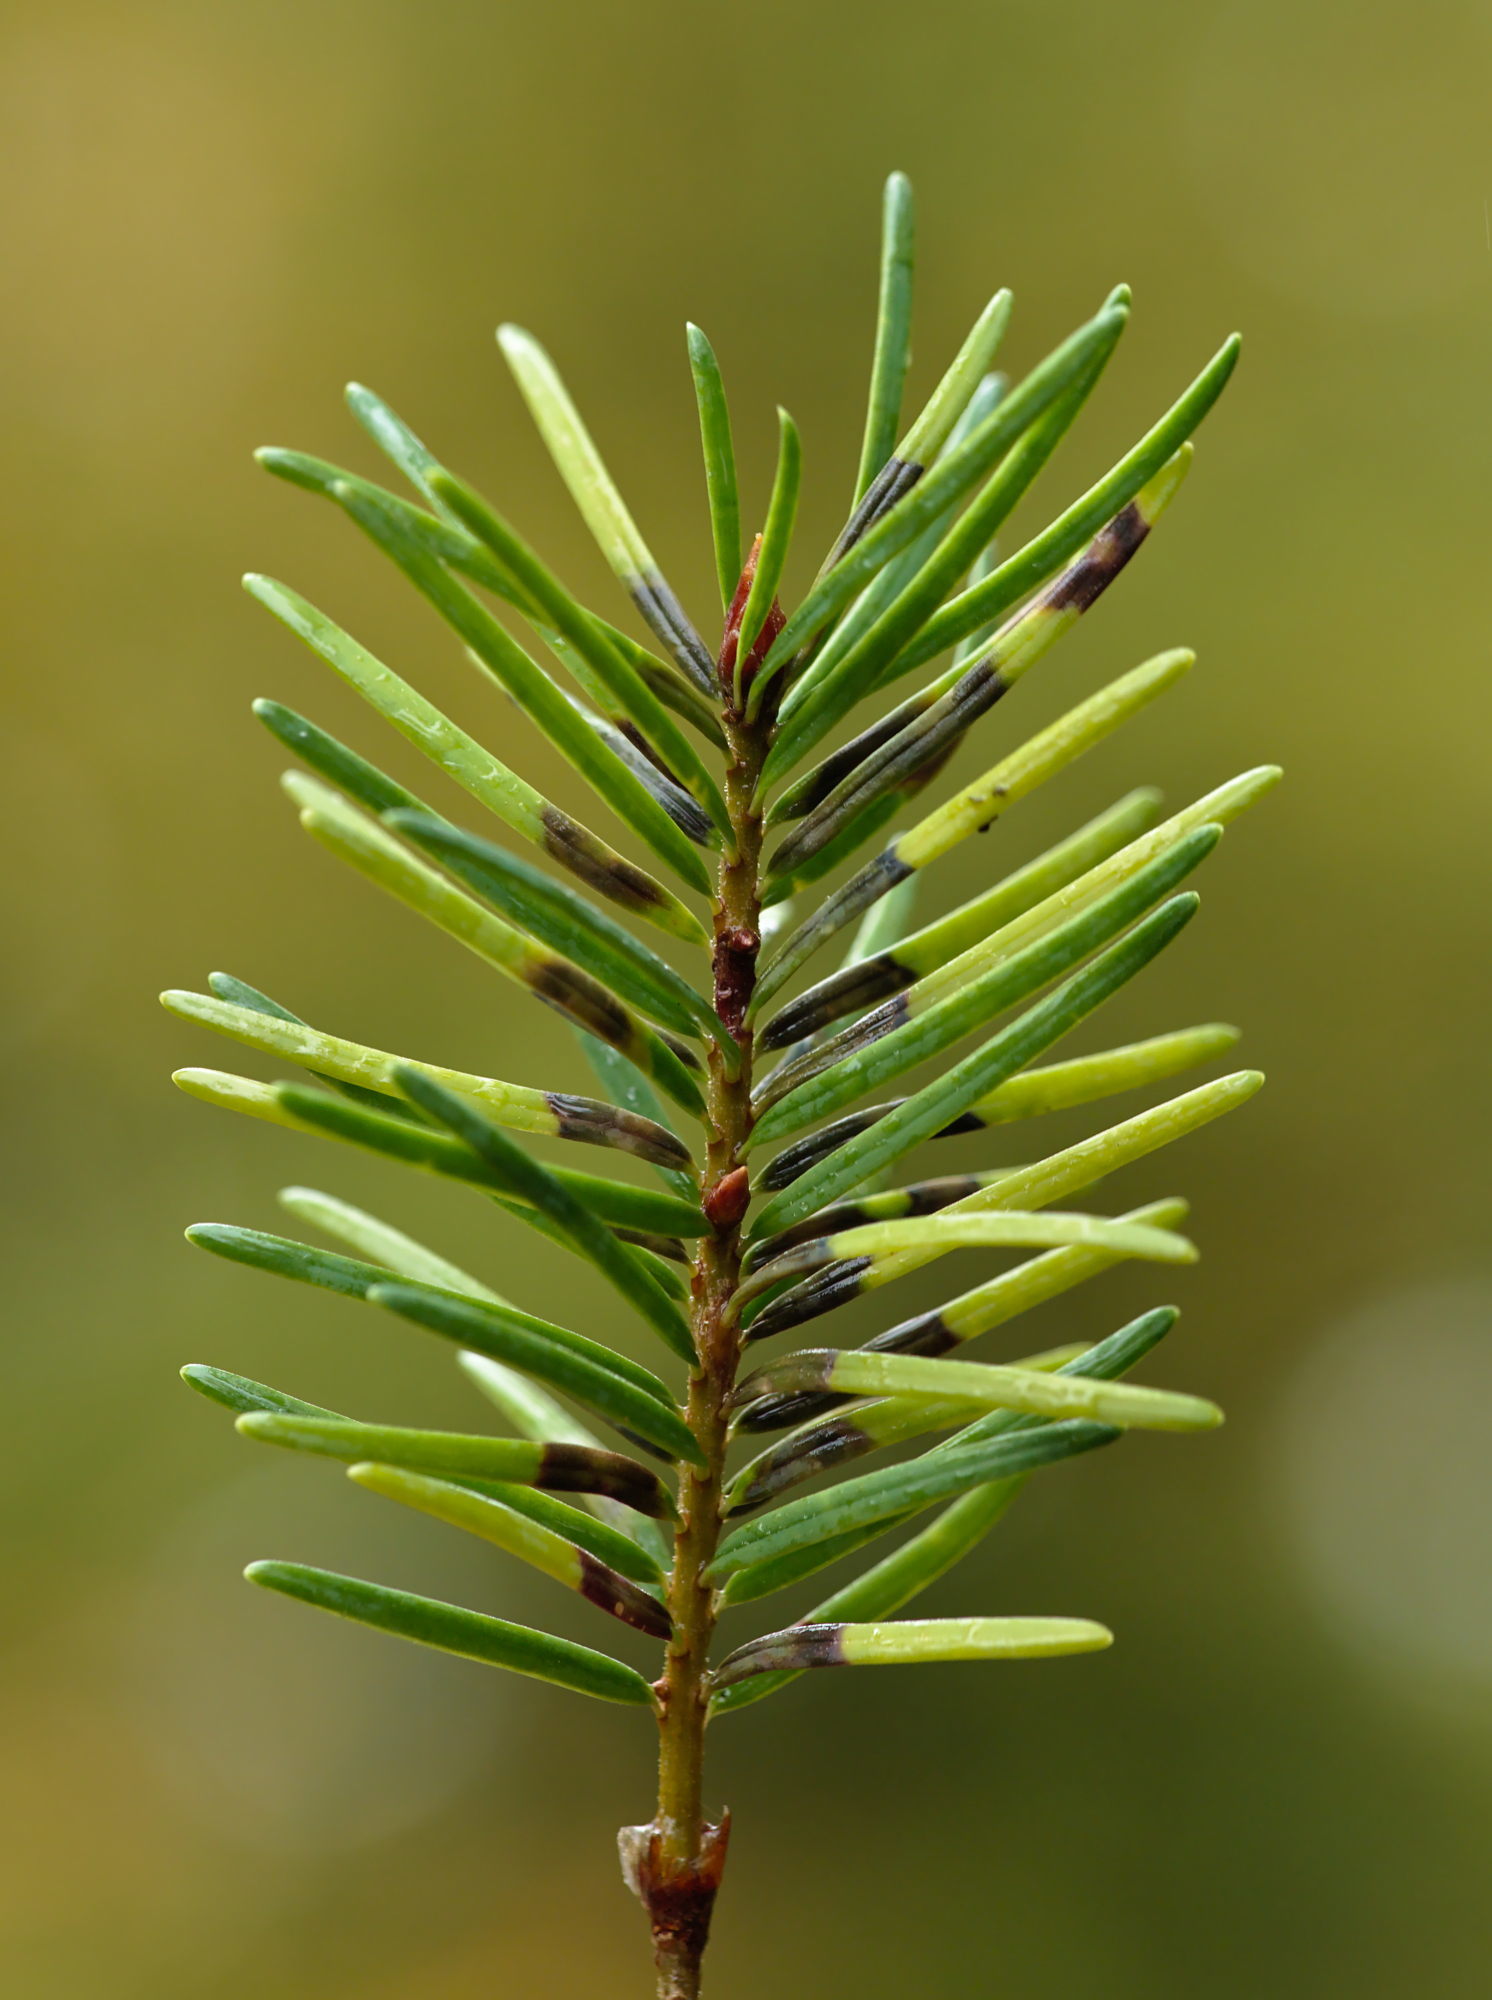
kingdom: Animalia
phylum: Arthropoda
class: Insecta
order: Diptera
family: Cecidomyiidae
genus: Contarinia
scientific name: Contarinia pseudotsugae
